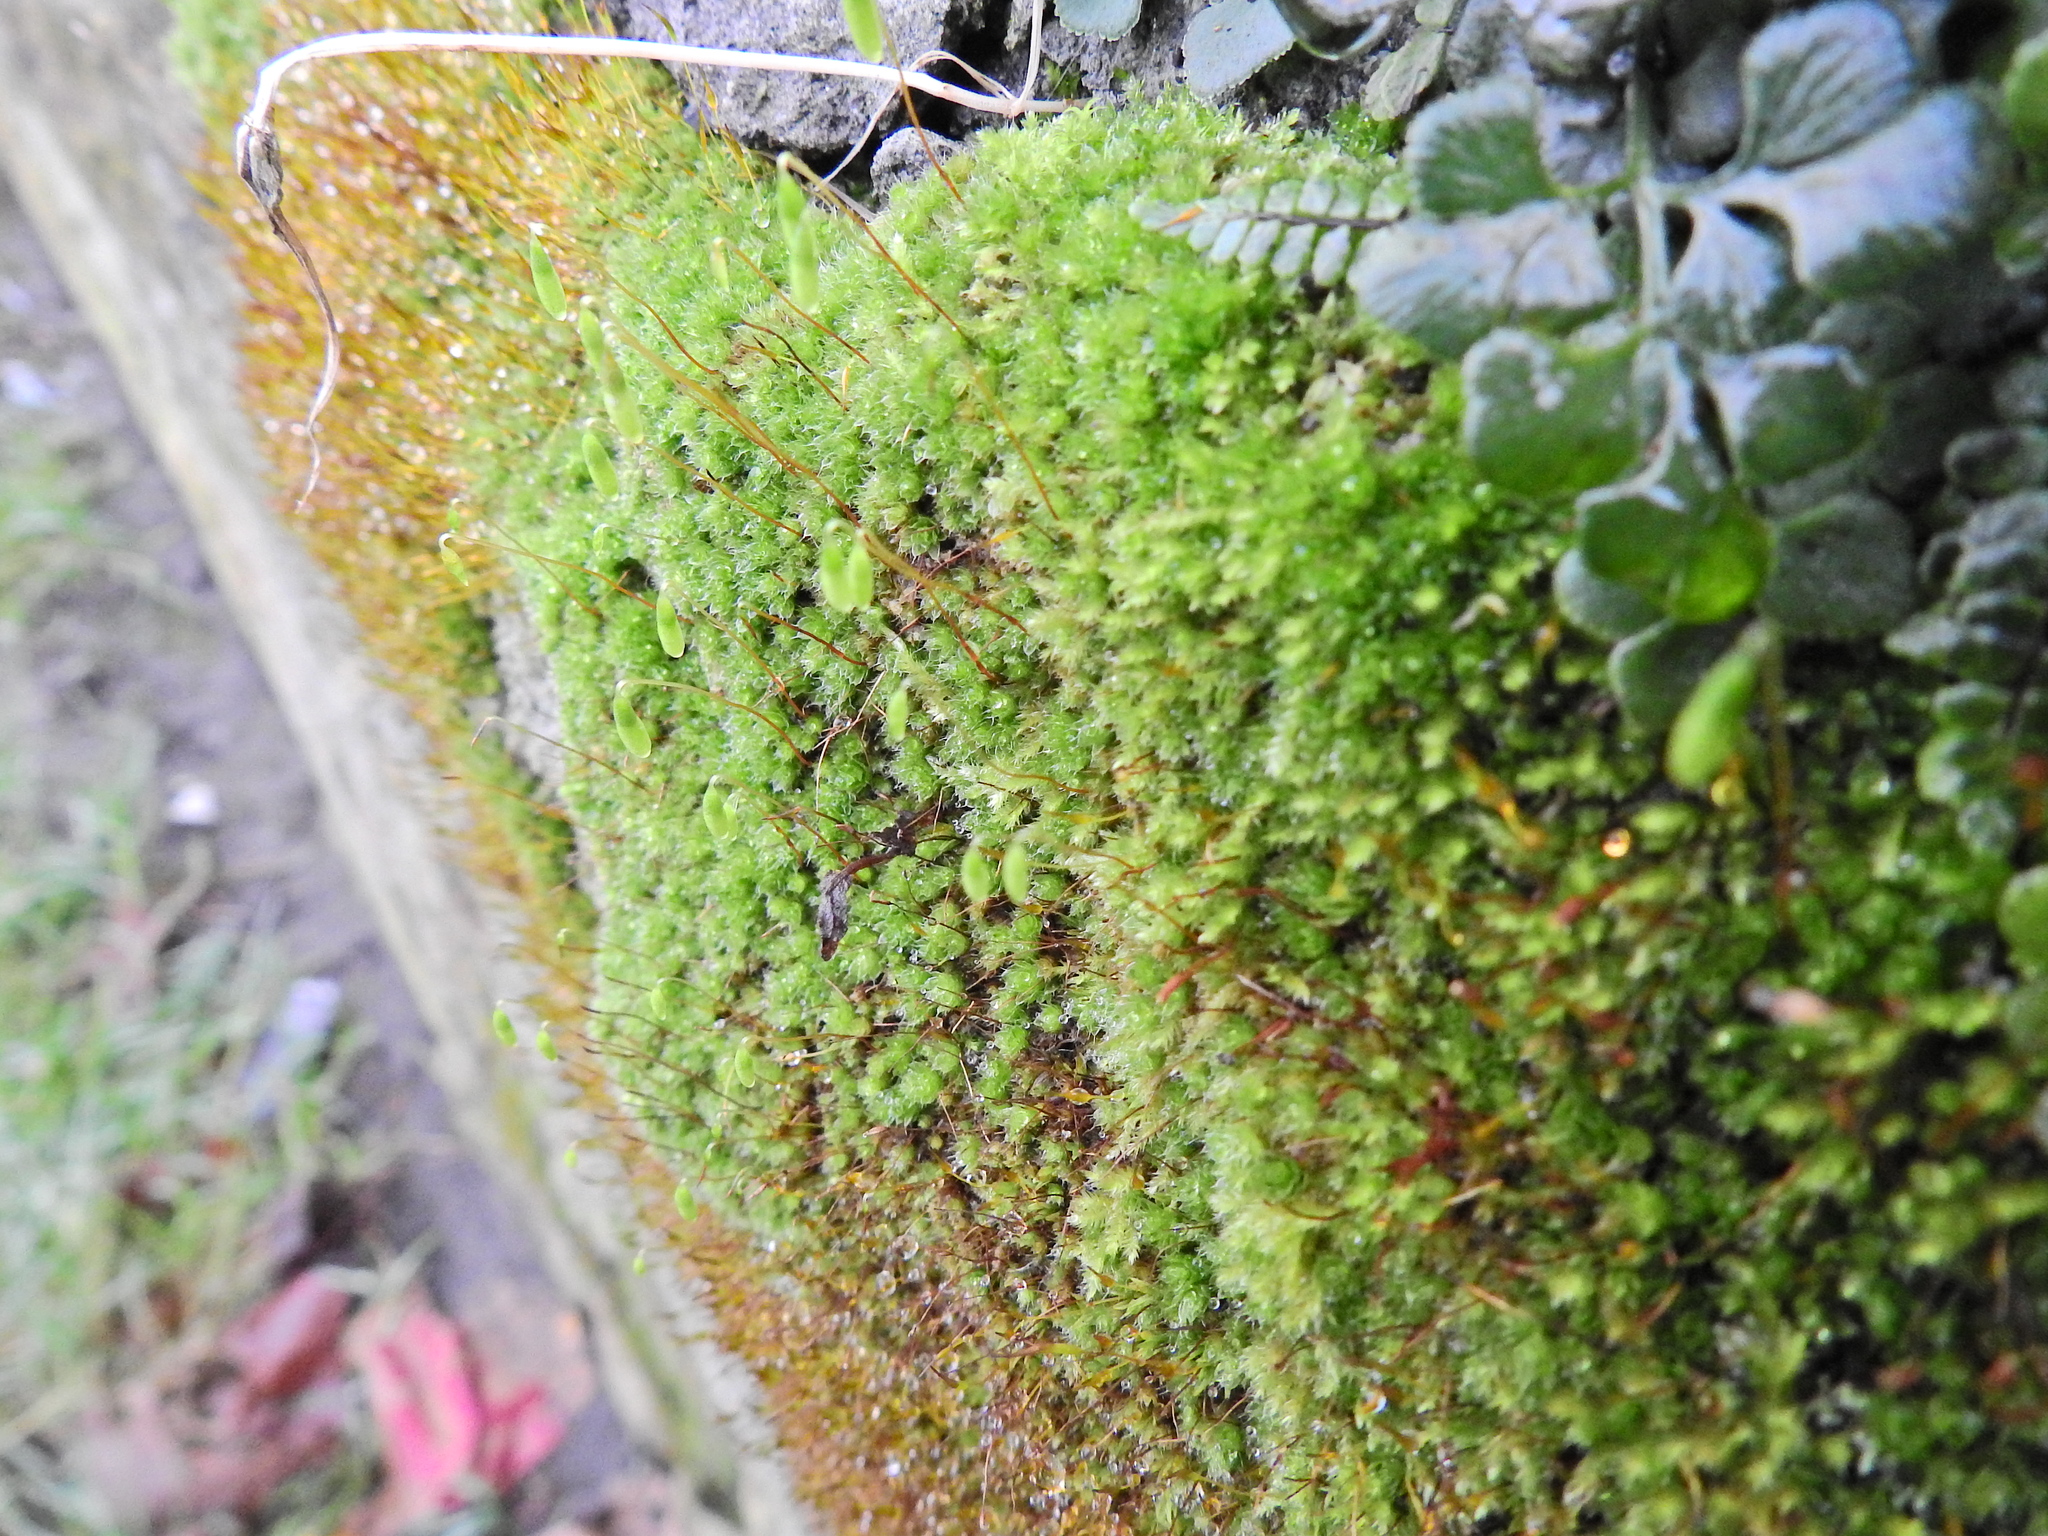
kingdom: Plantae
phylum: Bryophyta
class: Bryopsida
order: Bryales
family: Bryaceae
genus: Rosulabryum
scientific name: Rosulabryum capillare
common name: Capillary thread-moss
